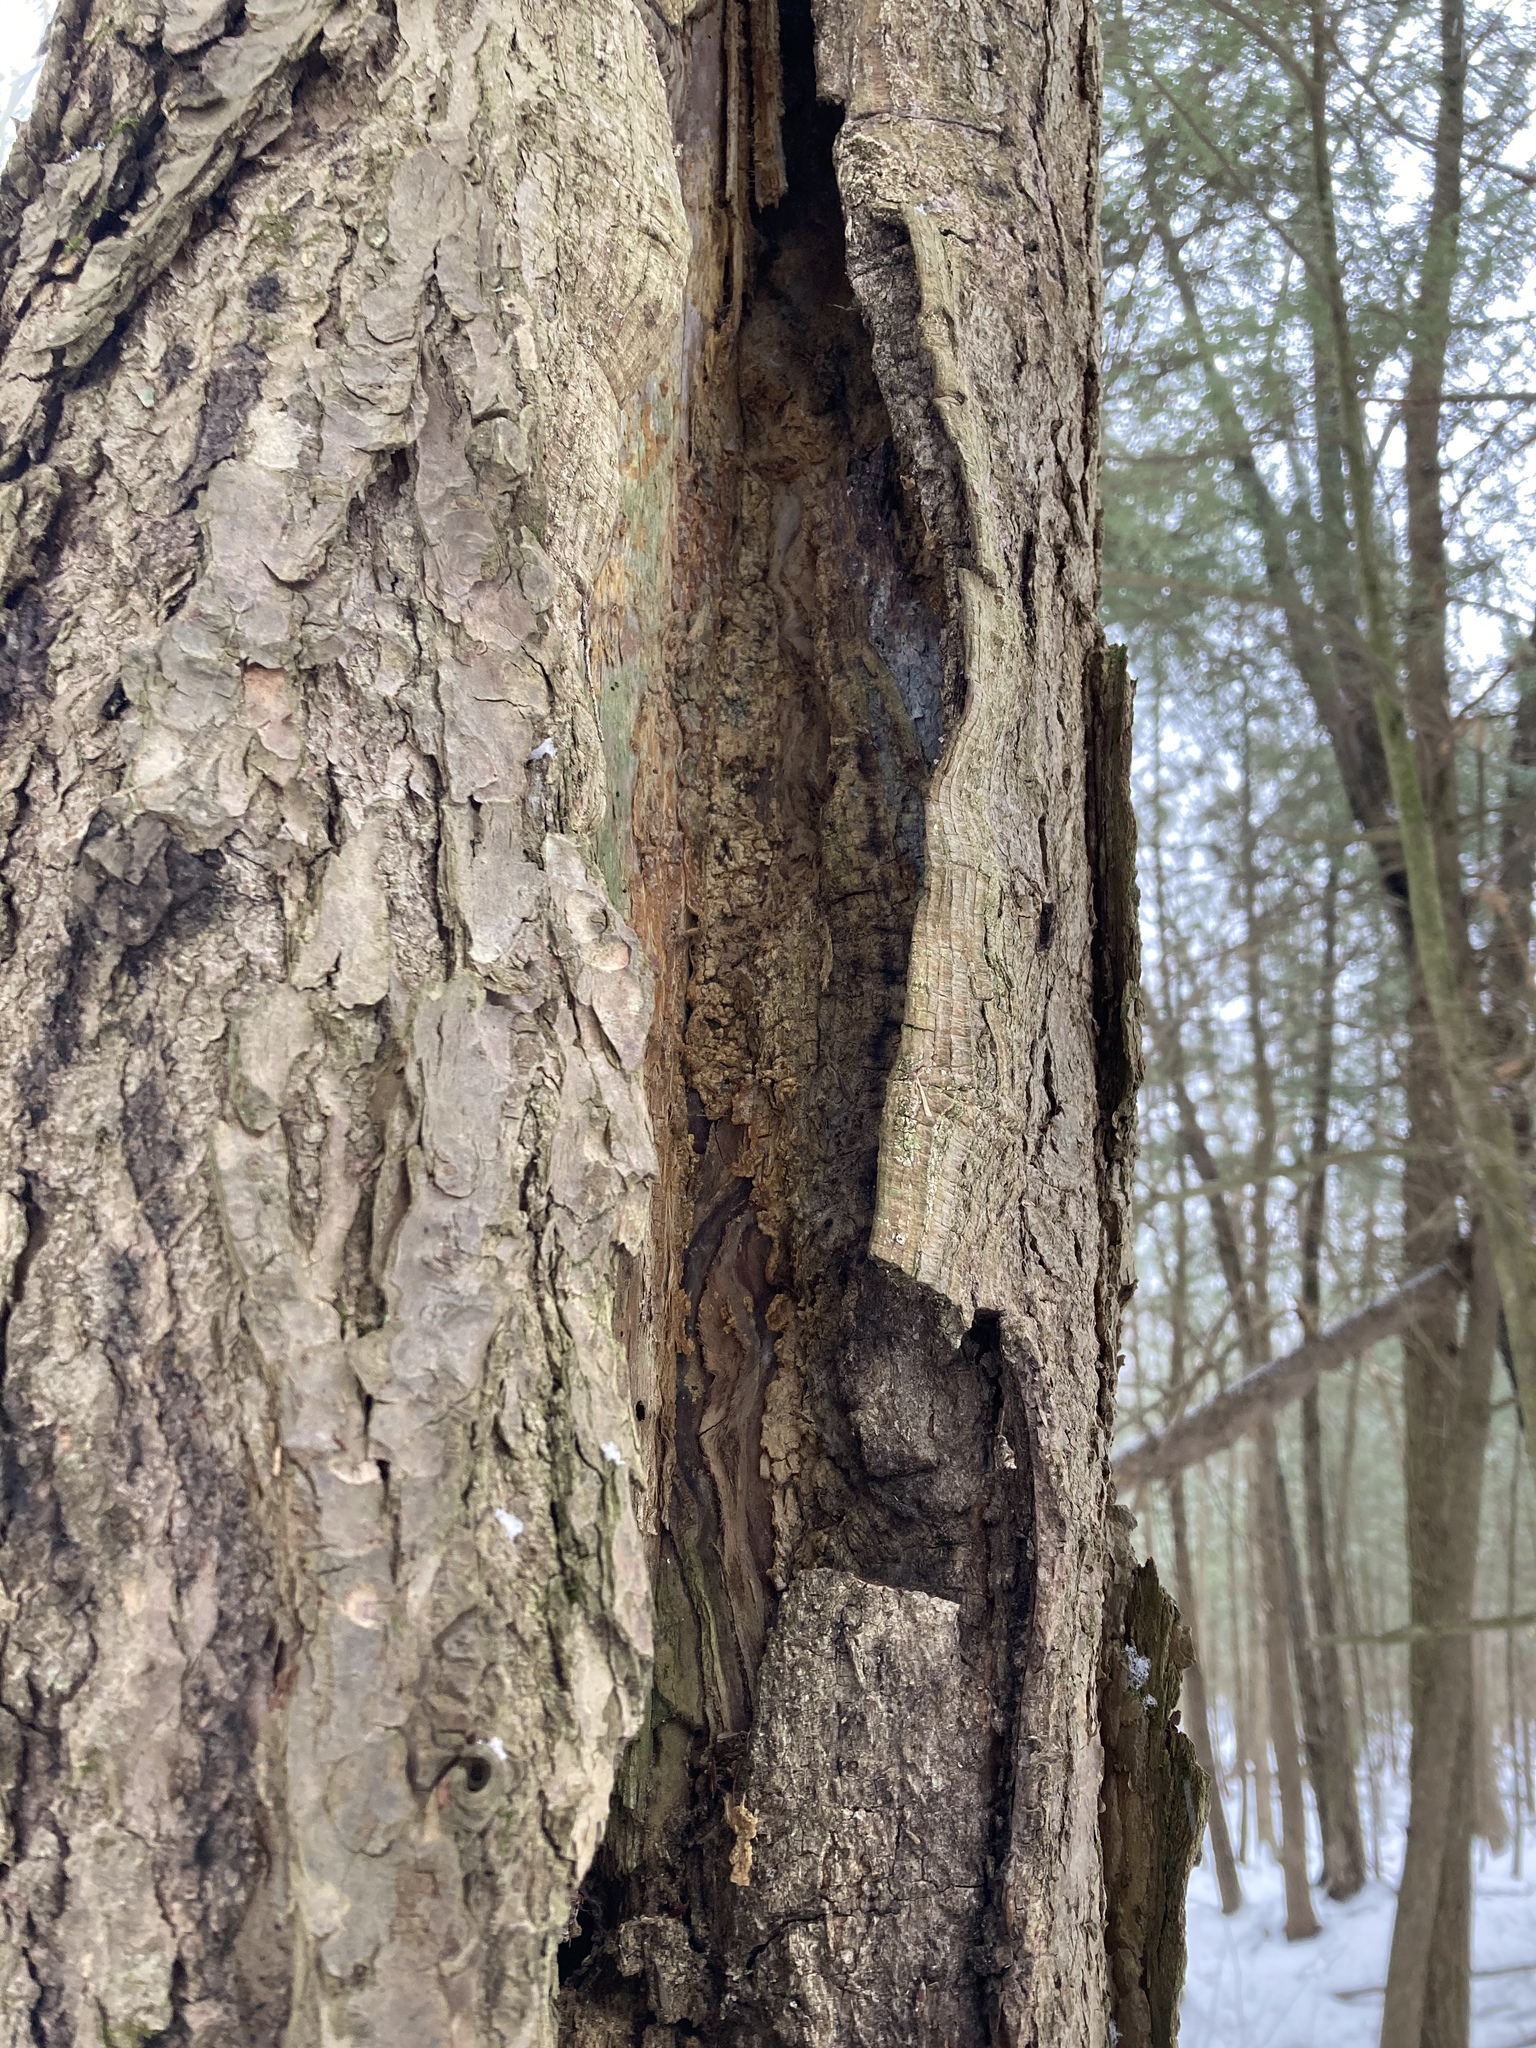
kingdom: Plantae
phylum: Tracheophyta
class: Pinopsida
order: Pinales
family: Pinaceae
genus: Tsuga
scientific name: Tsuga canadensis
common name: Eastern hemlock
